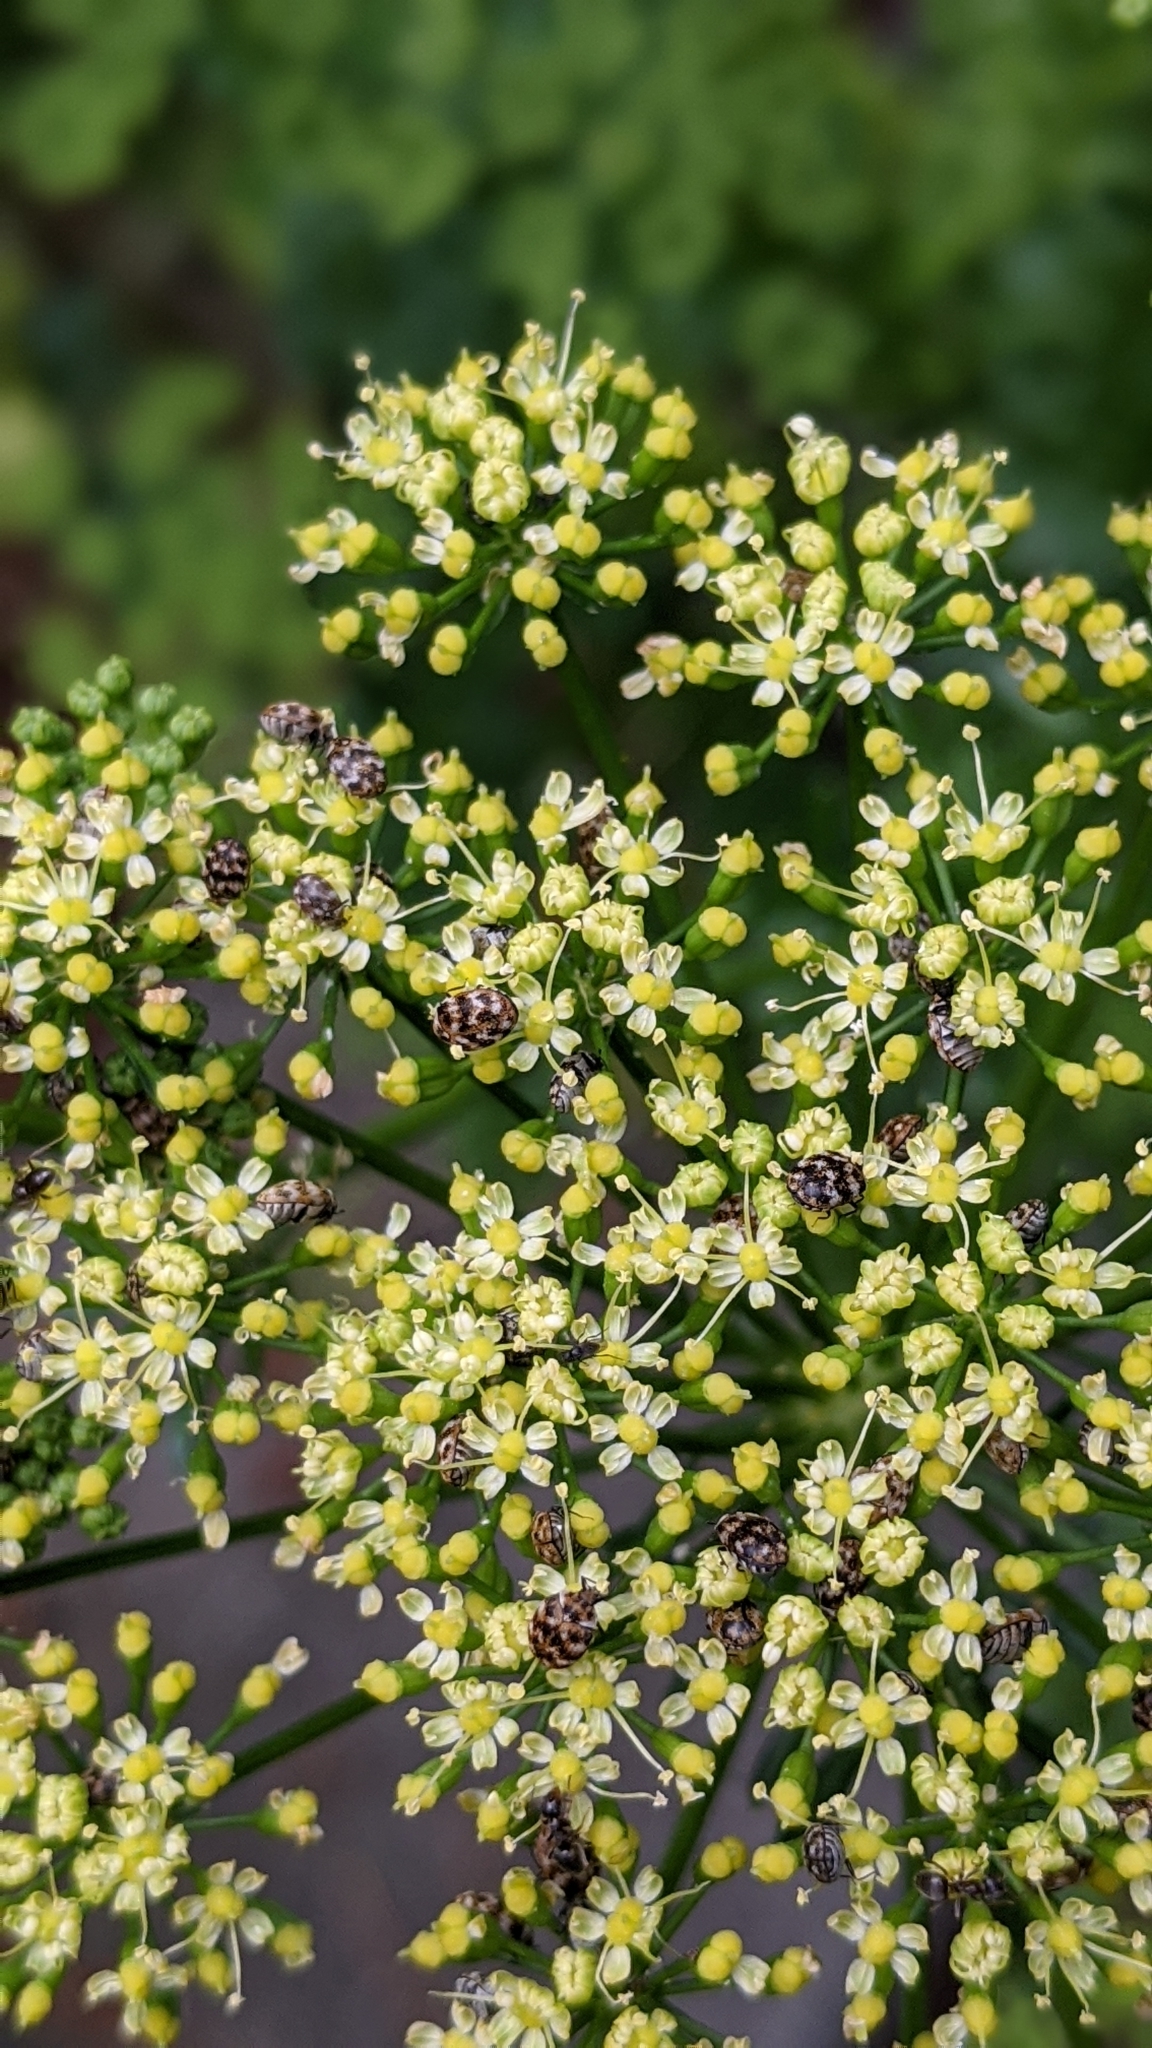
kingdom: Animalia
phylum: Arthropoda
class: Insecta
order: Coleoptera
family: Dermestidae
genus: Anthrenus
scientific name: Anthrenus verbasci
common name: Varied carpet beetle
